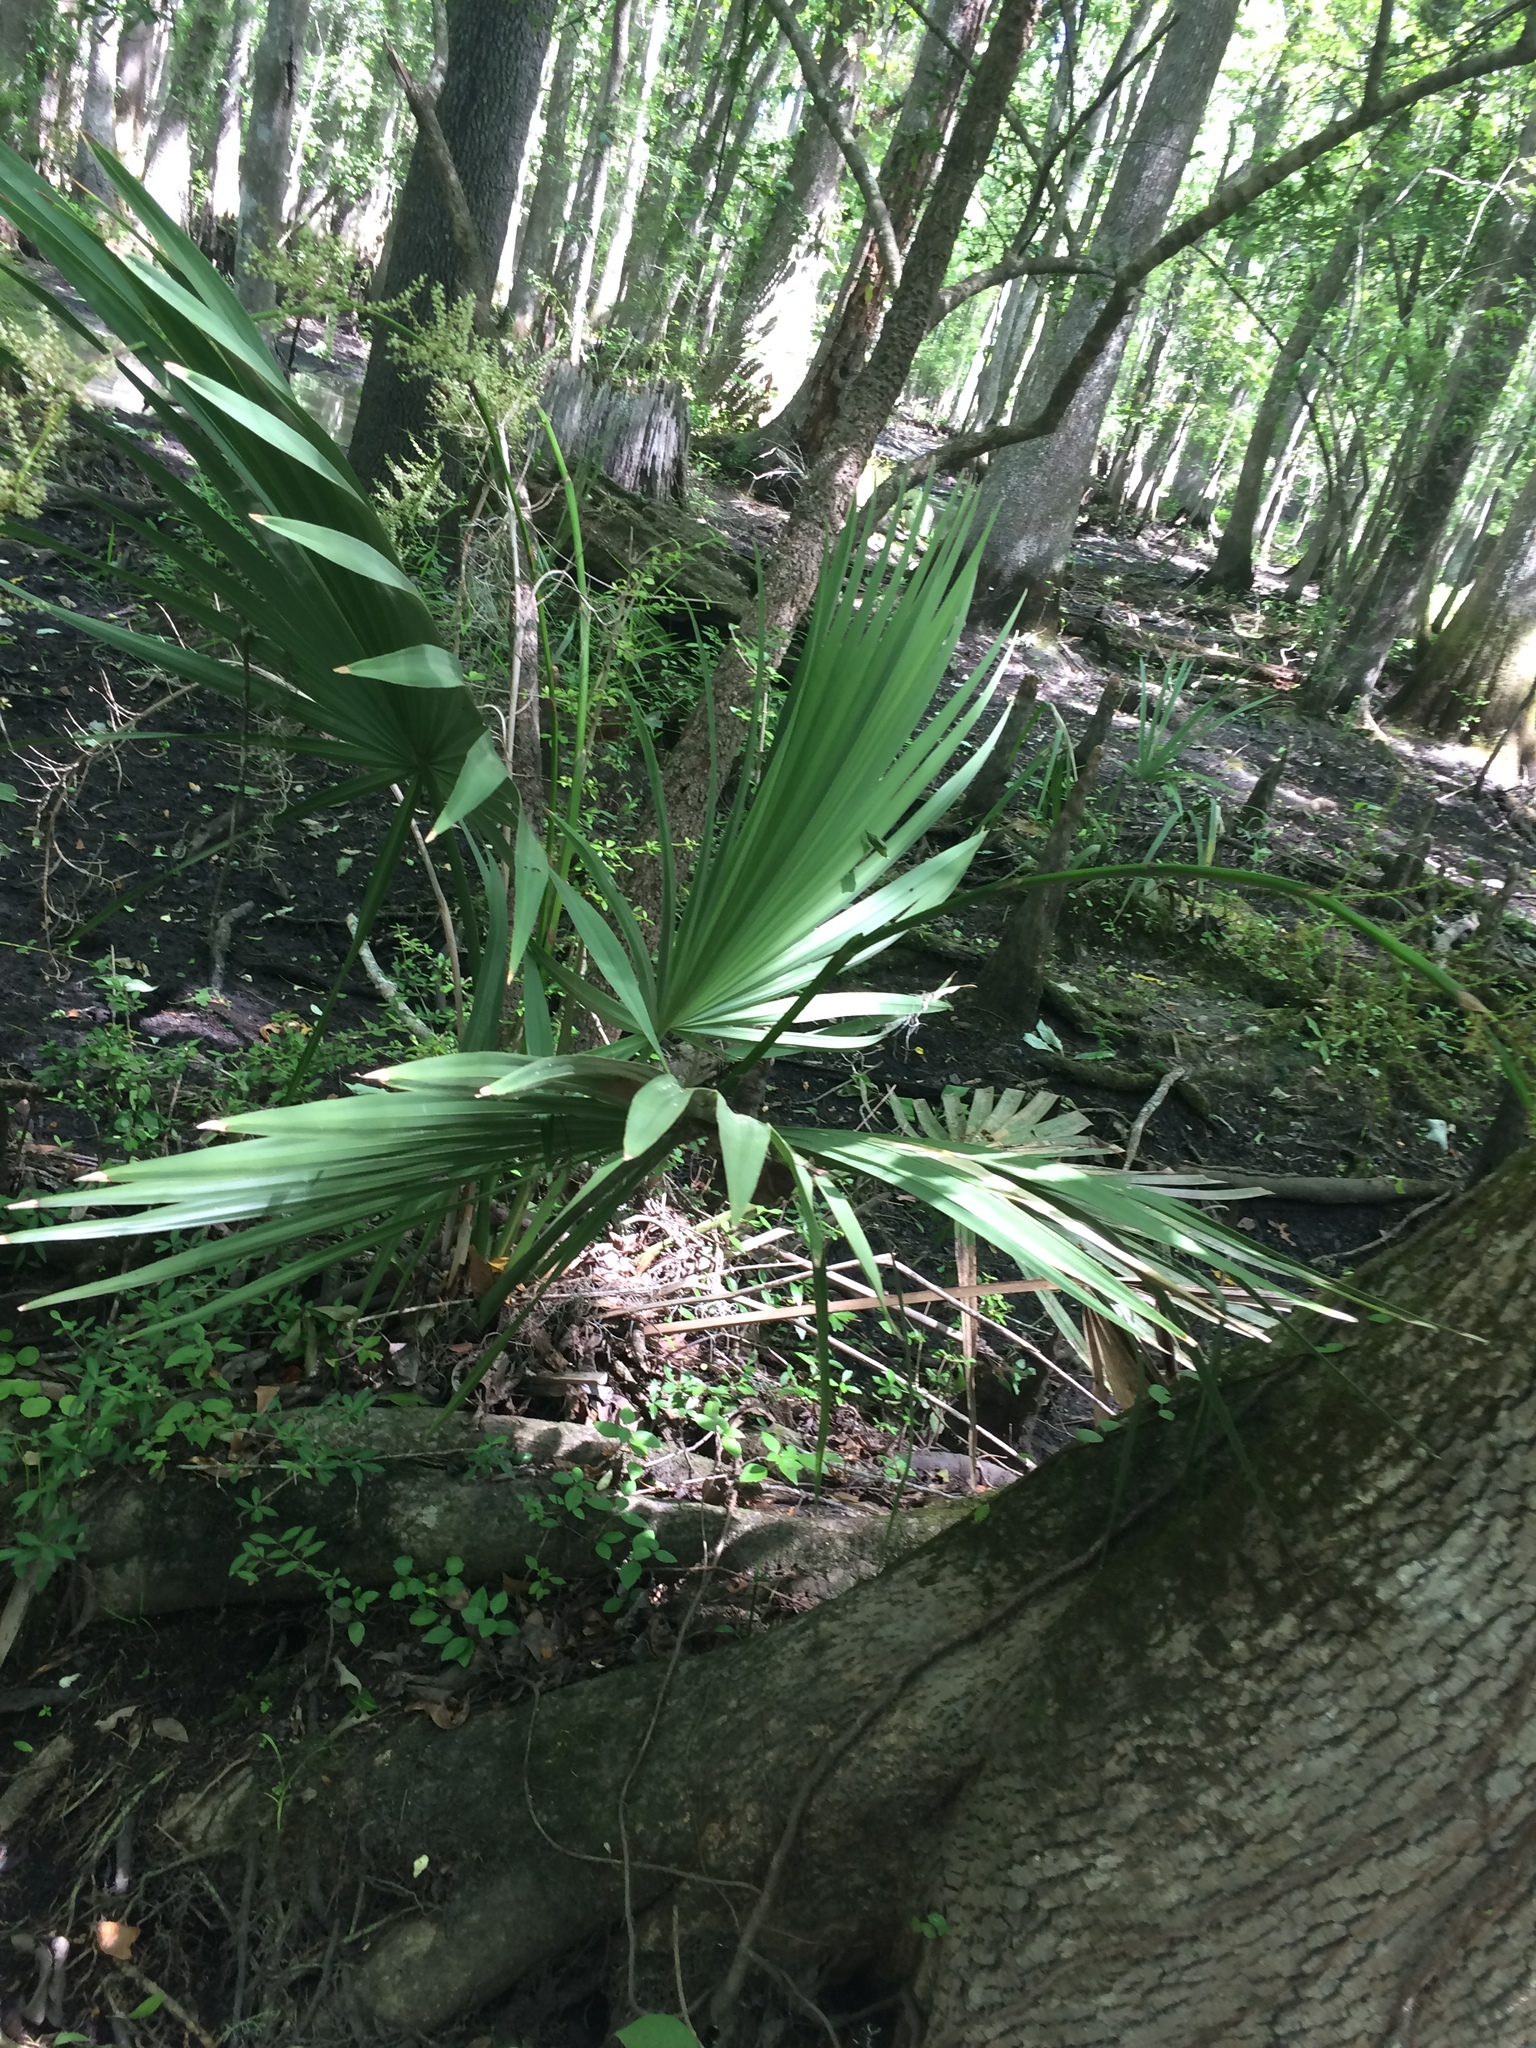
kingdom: Plantae
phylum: Tracheophyta
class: Liliopsida
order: Arecales
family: Arecaceae
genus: Sabal
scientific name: Sabal minor
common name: Dwarf palmetto
